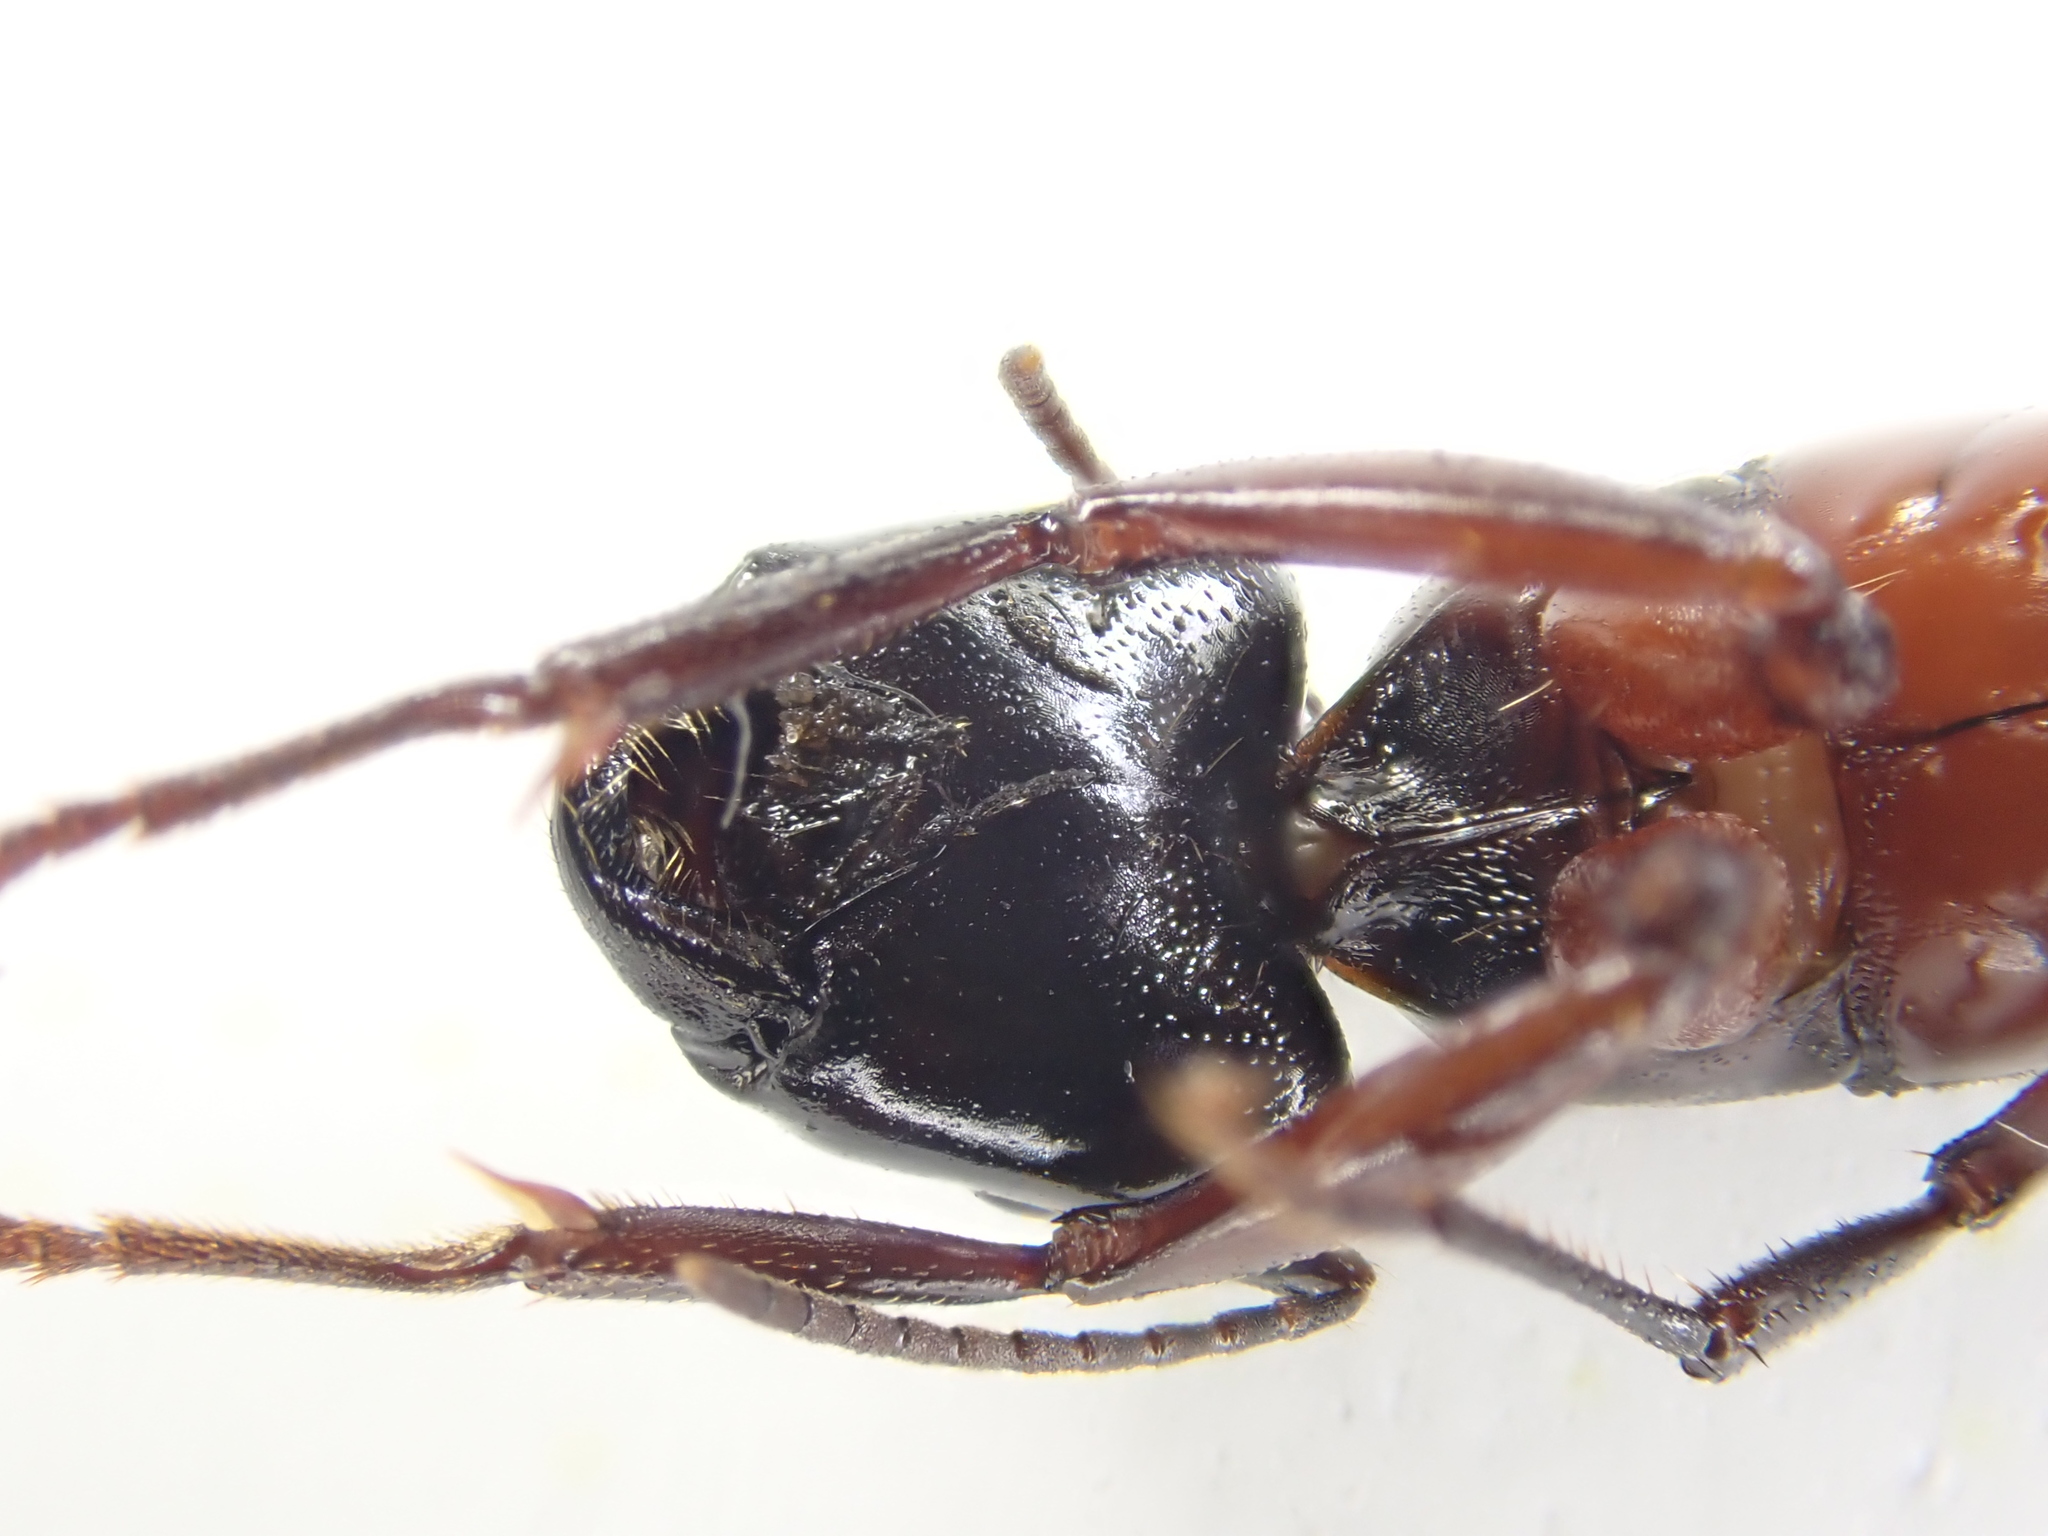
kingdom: Animalia
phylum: Arthropoda
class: Insecta
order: Hymenoptera
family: Formicidae
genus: Camponotus
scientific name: Camponotus ligniperdus
